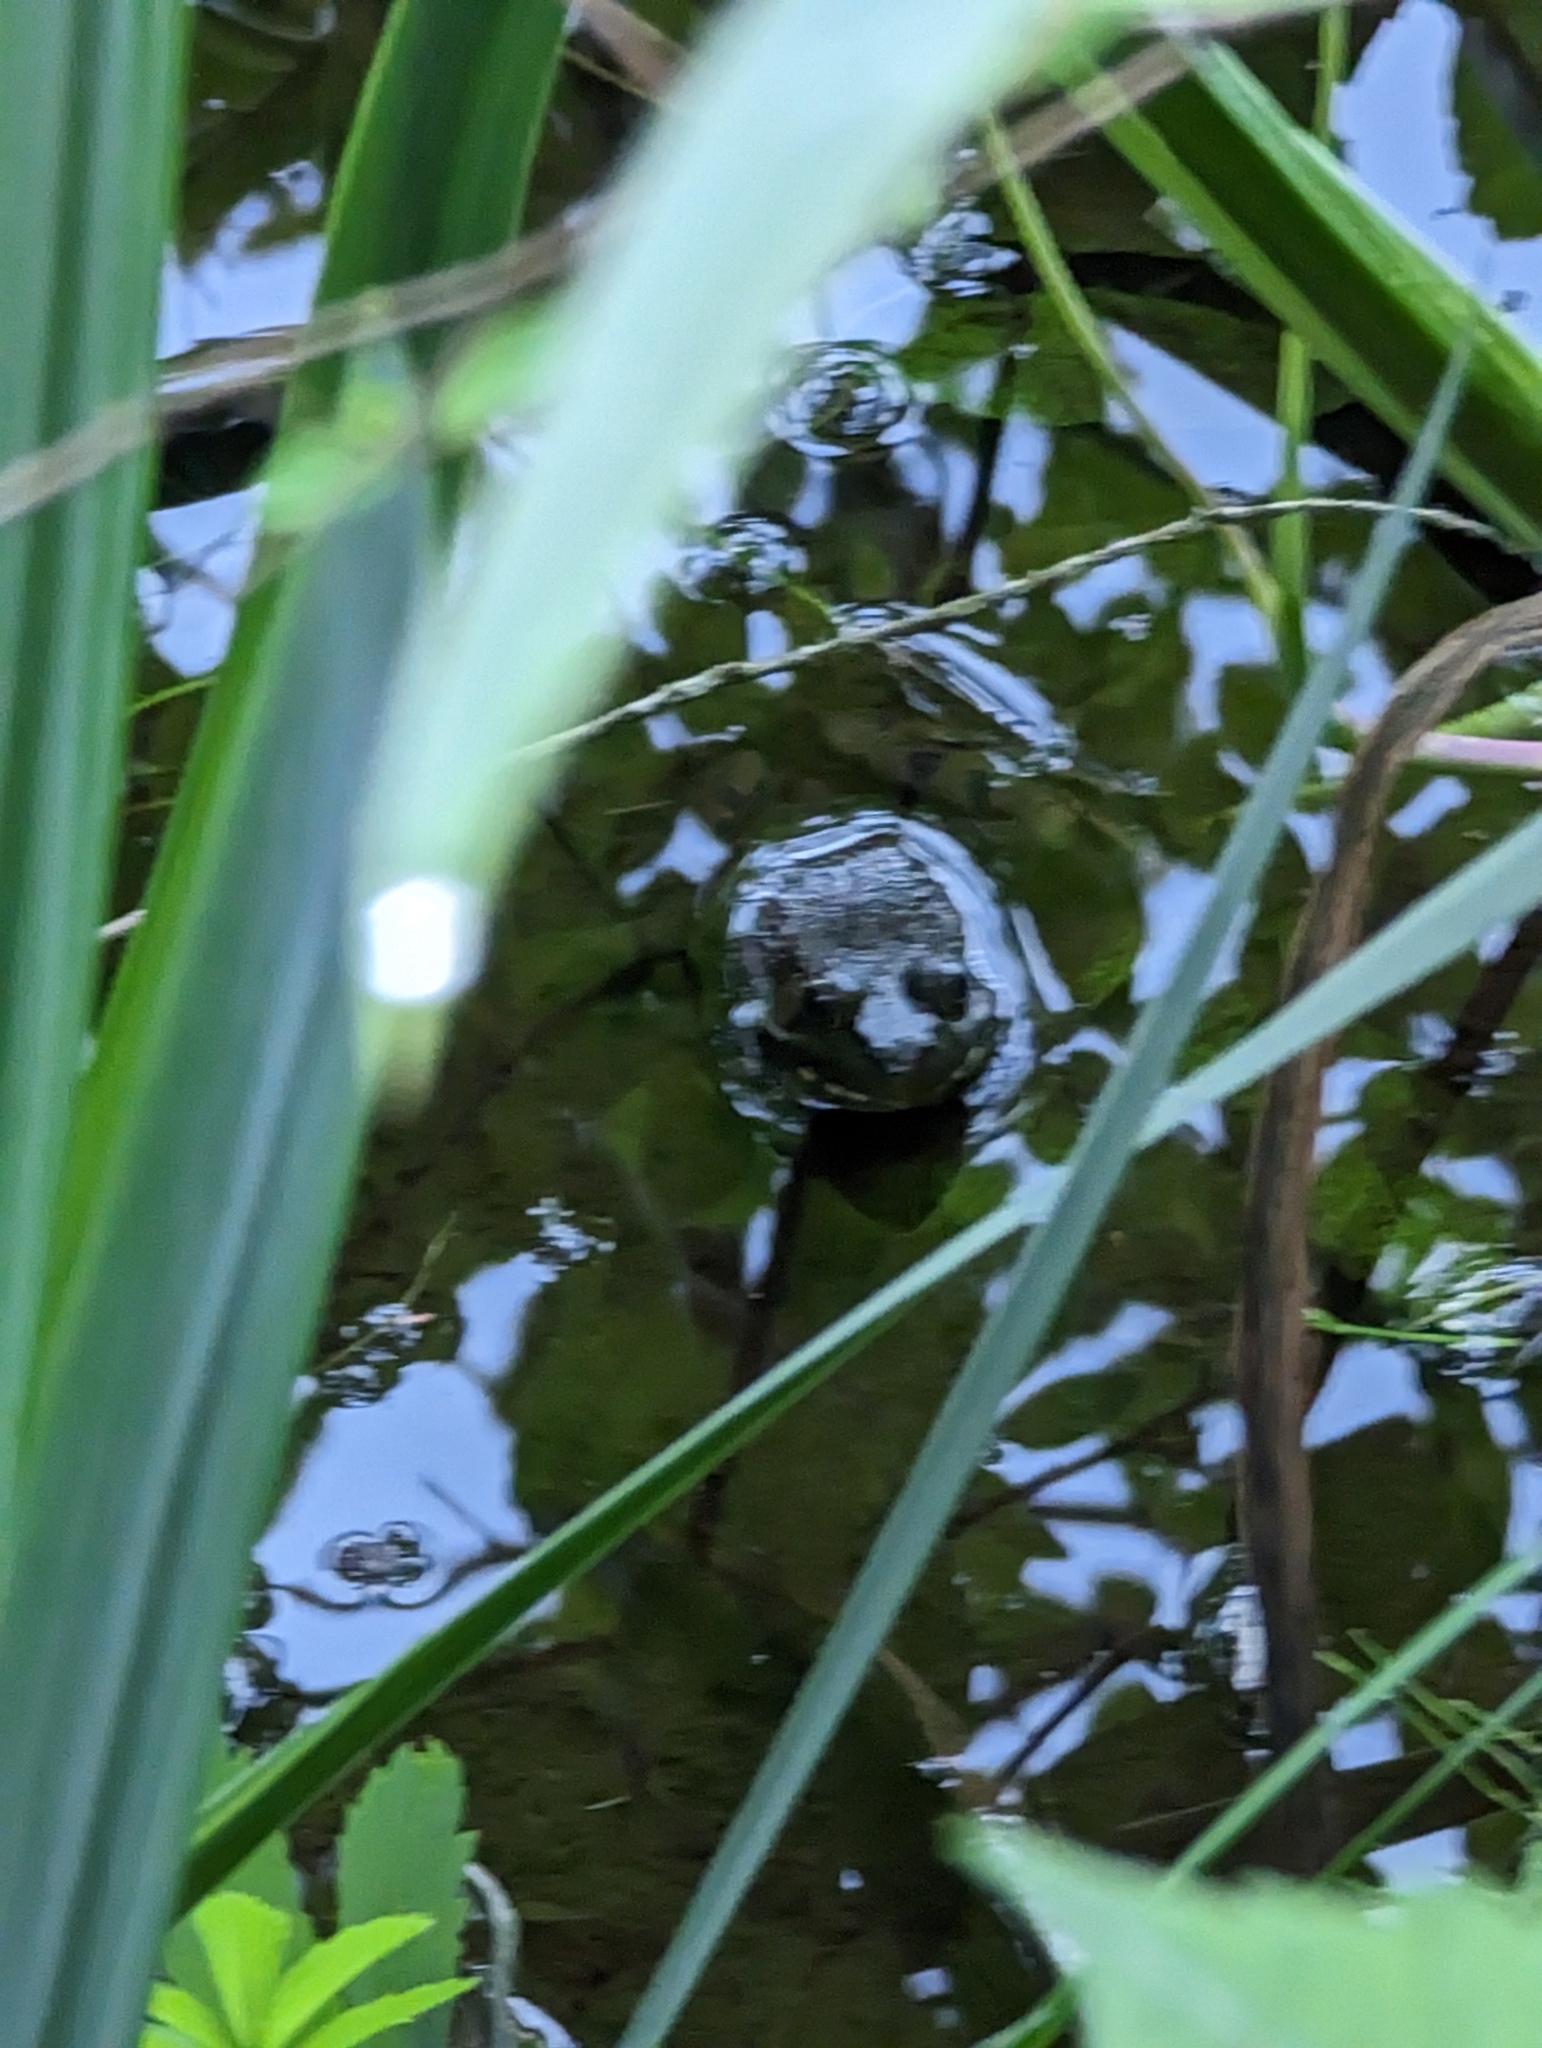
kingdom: Animalia
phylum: Chordata
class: Amphibia
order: Anura
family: Ranidae
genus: Lithobates
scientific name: Lithobates clamitans
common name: Green frog
